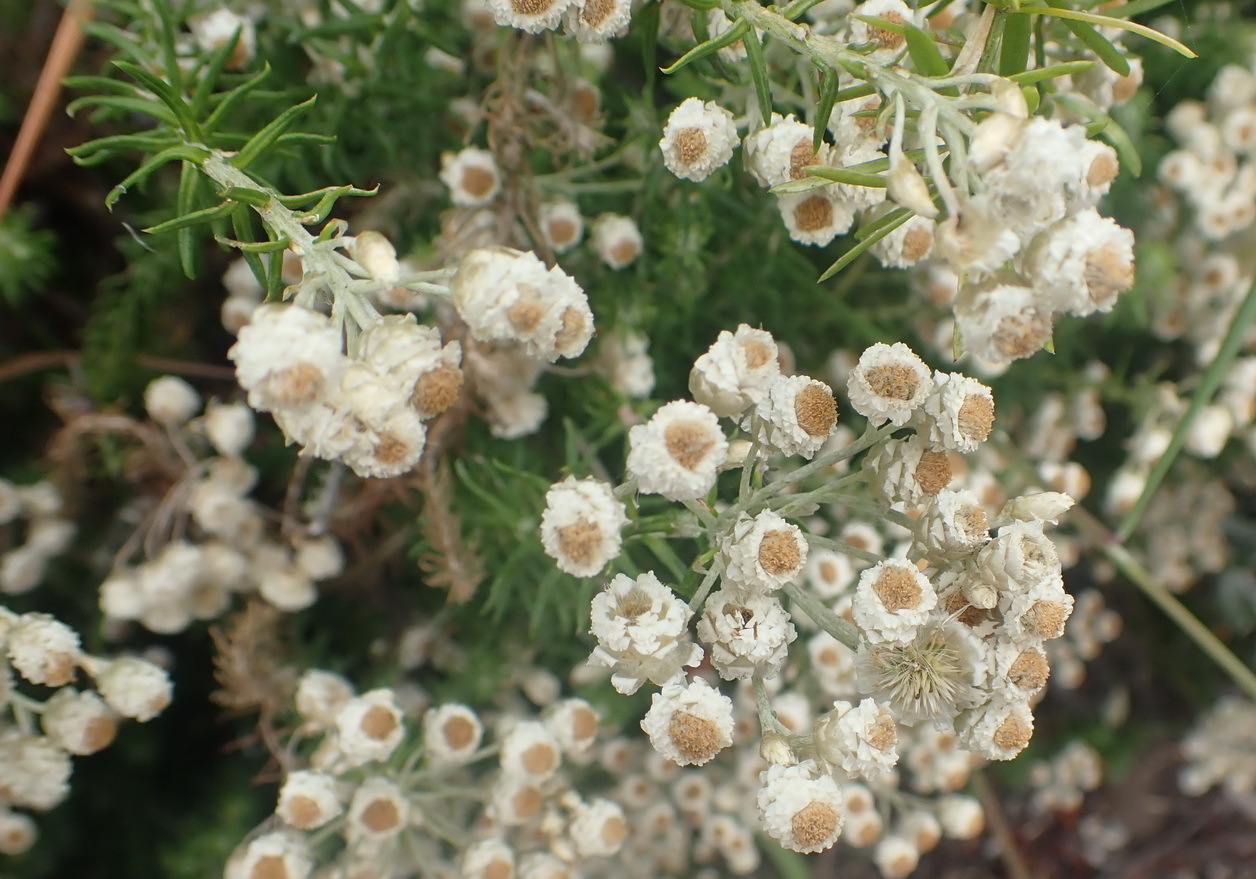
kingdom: Plantae
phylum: Tracheophyta
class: Magnoliopsida
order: Asterales
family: Asteraceae
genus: Helichrysum
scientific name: Helichrysum teretifolium
